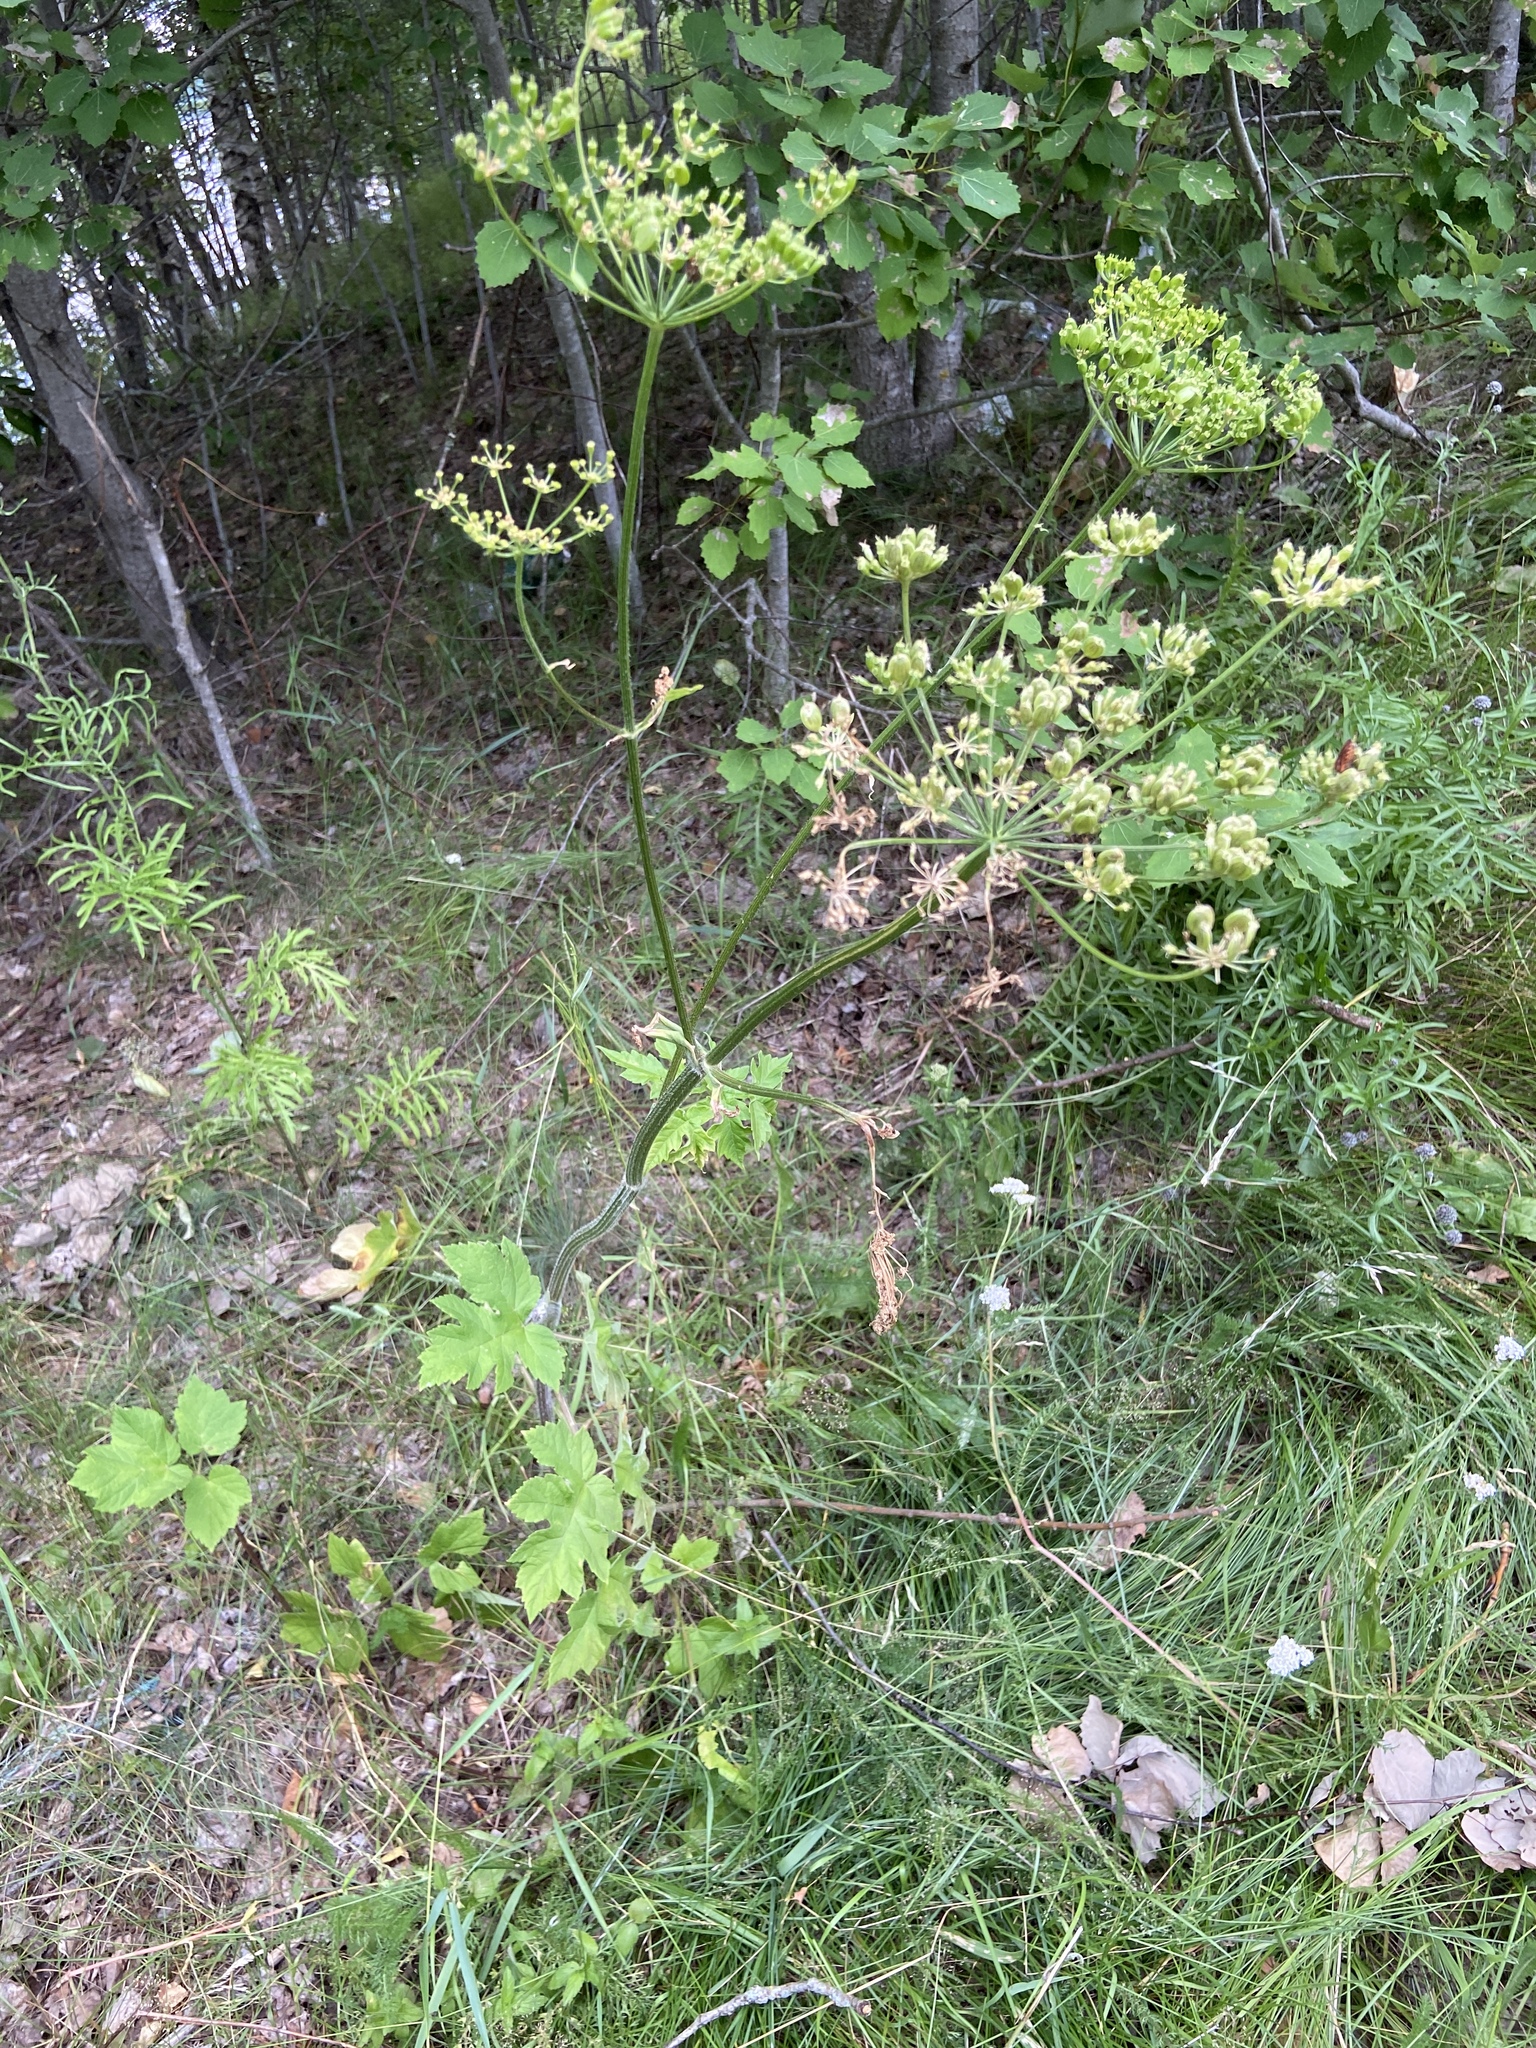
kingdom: Plantae
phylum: Tracheophyta
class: Magnoliopsida
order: Apiales
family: Apiaceae
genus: Heracleum
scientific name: Heracleum sphondylium
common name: Hogweed
